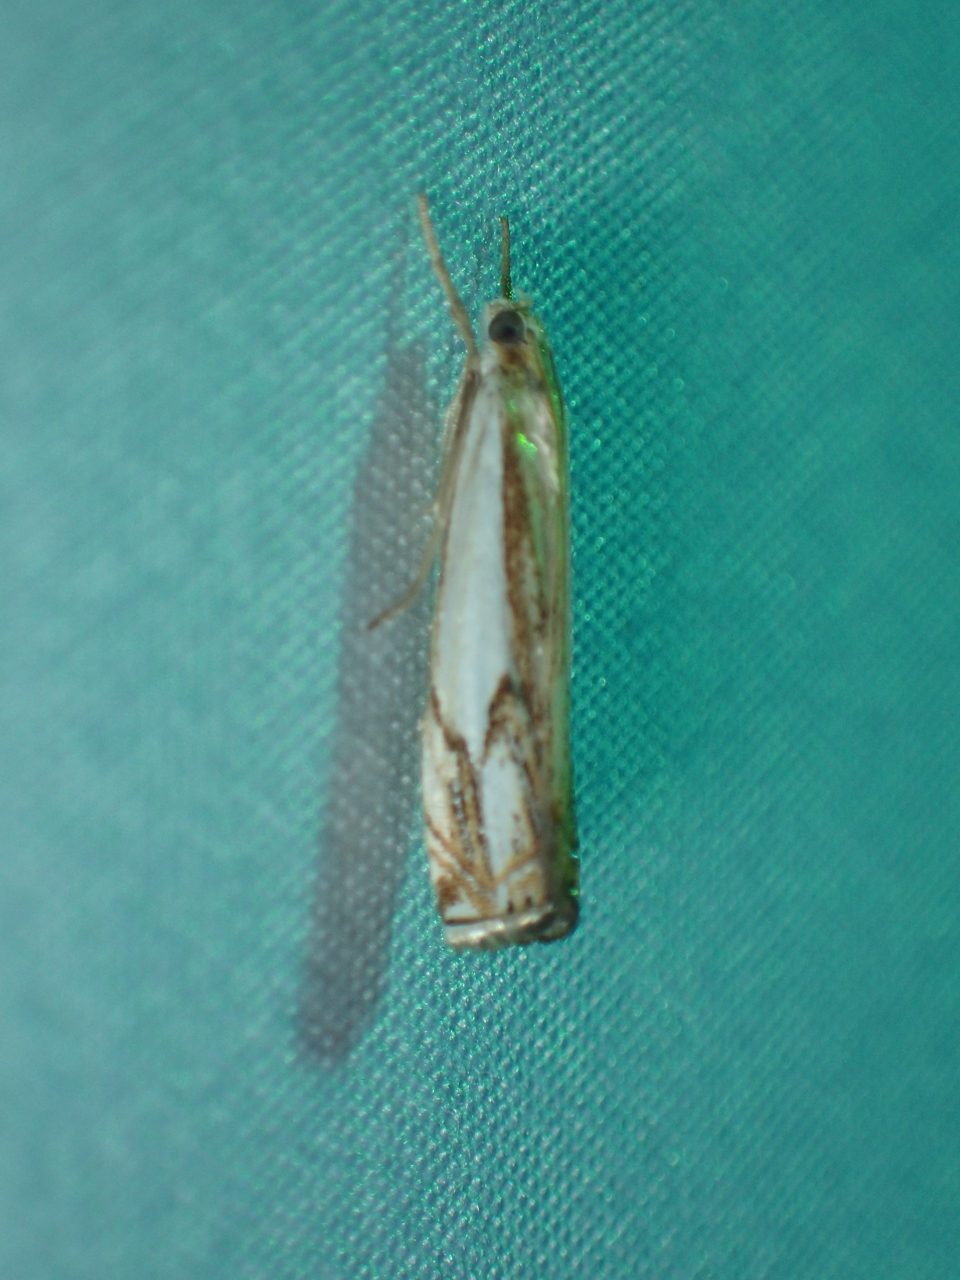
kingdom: Animalia
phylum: Arthropoda
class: Insecta
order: Lepidoptera
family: Crambidae
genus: Crambus
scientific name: Crambus agitatellus
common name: Double-banded grass-veneer
